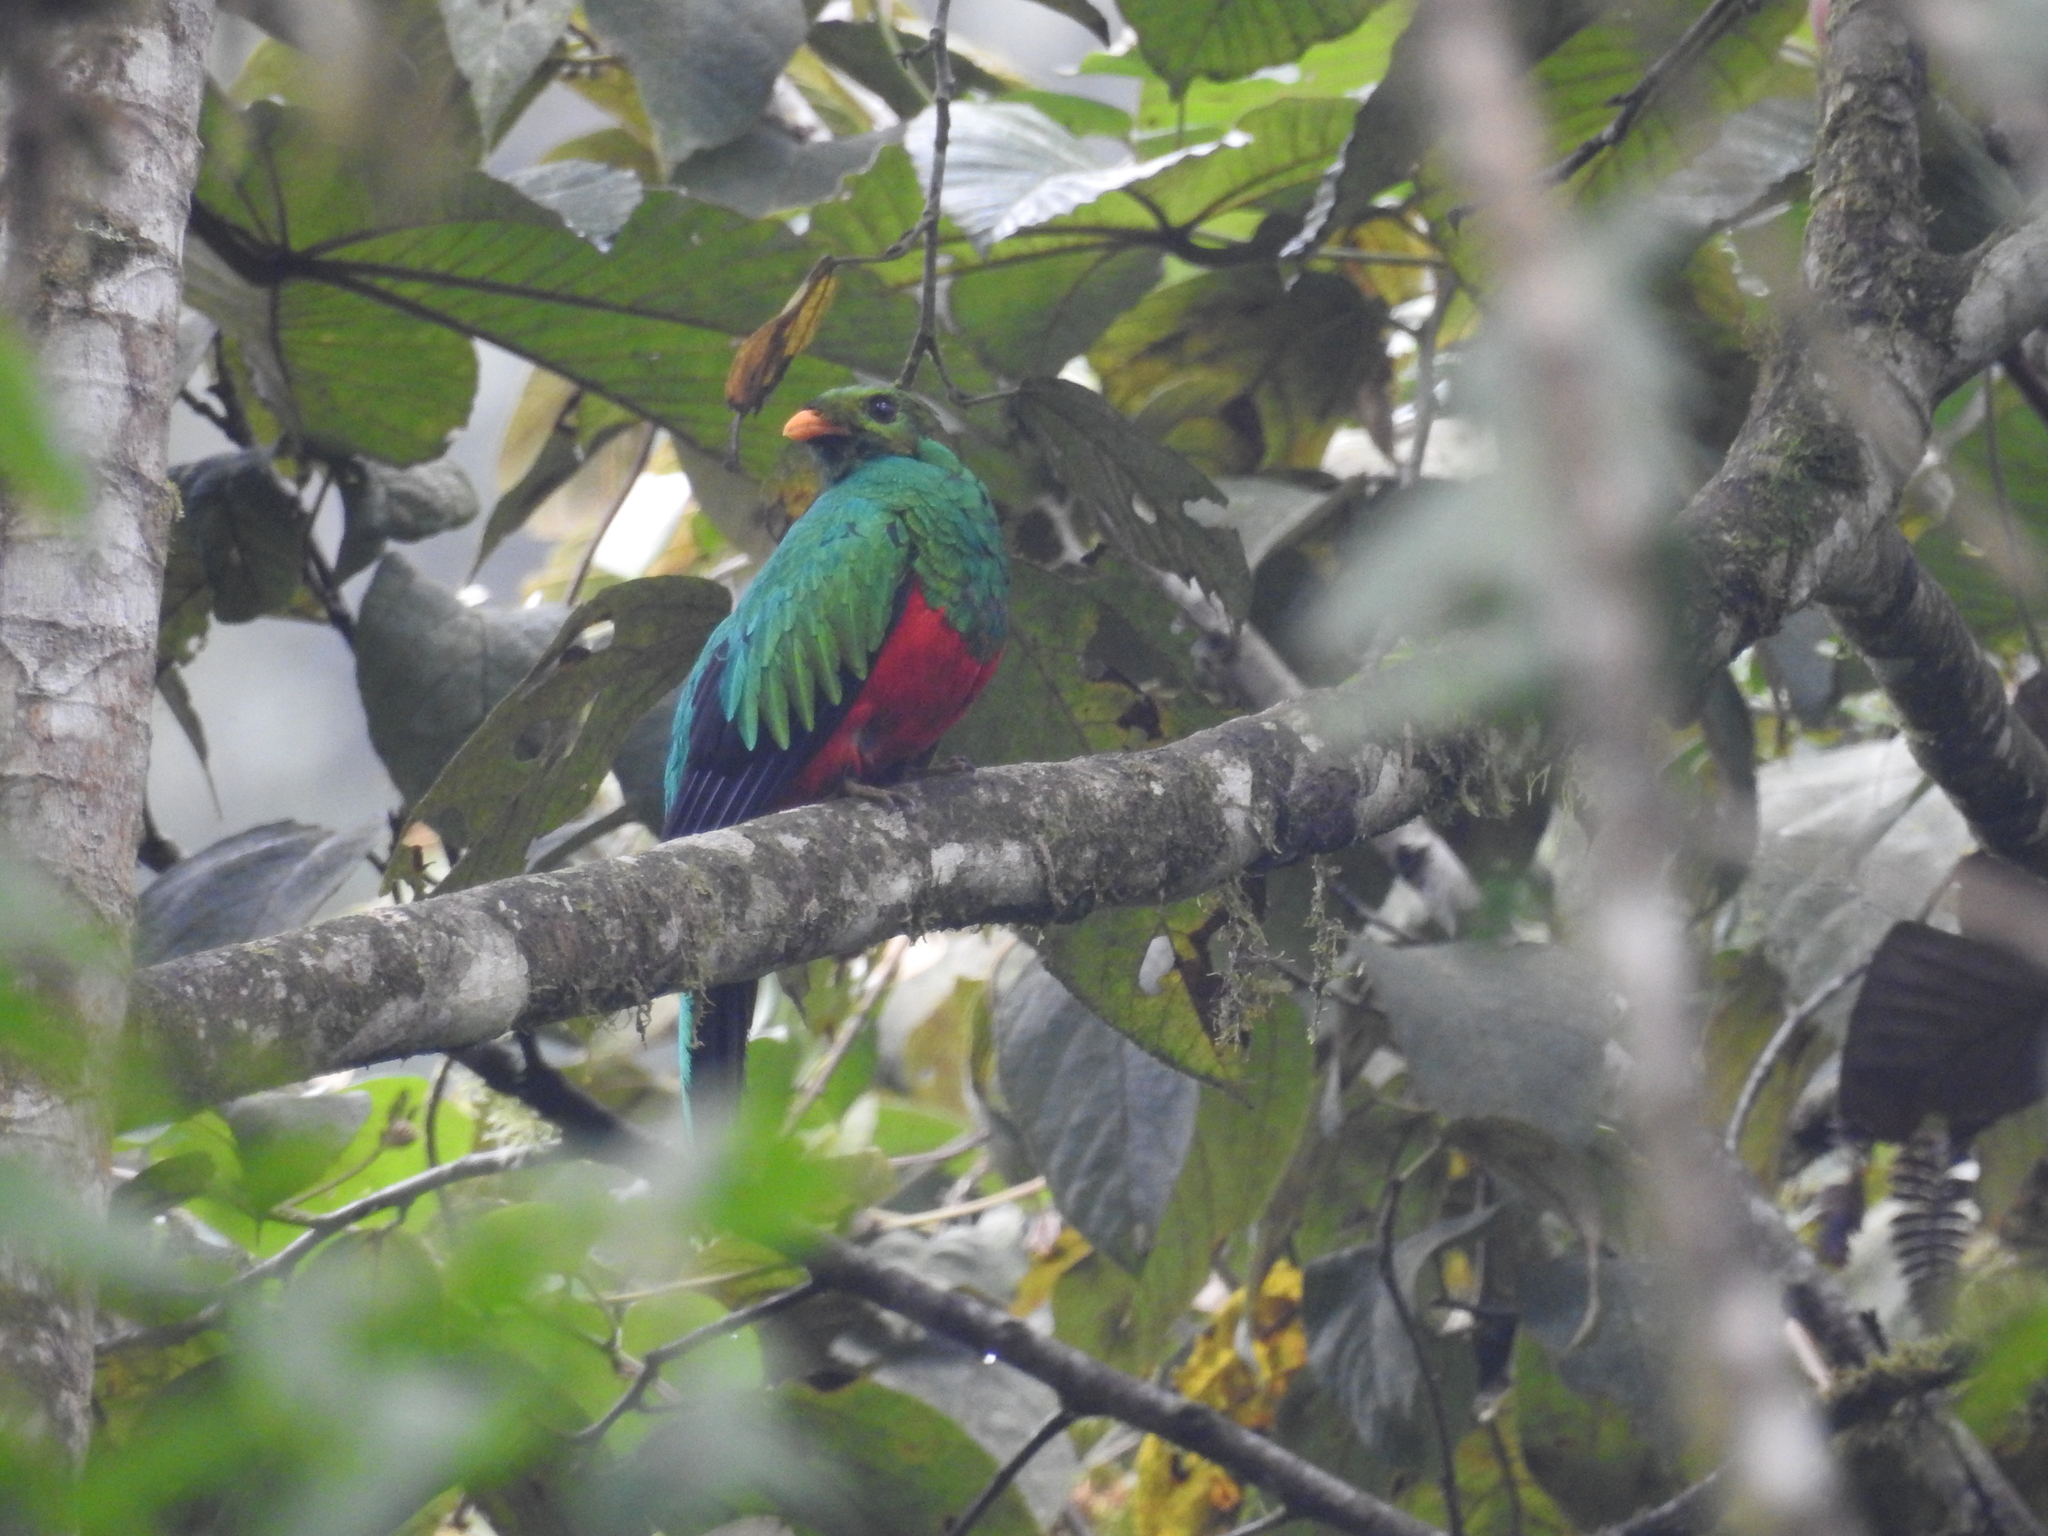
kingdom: Animalia
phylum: Chordata
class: Aves
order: Trogoniformes
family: Trogonidae
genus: Pharomachrus
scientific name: Pharomachrus auriceps
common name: Golden-headed quetzal
